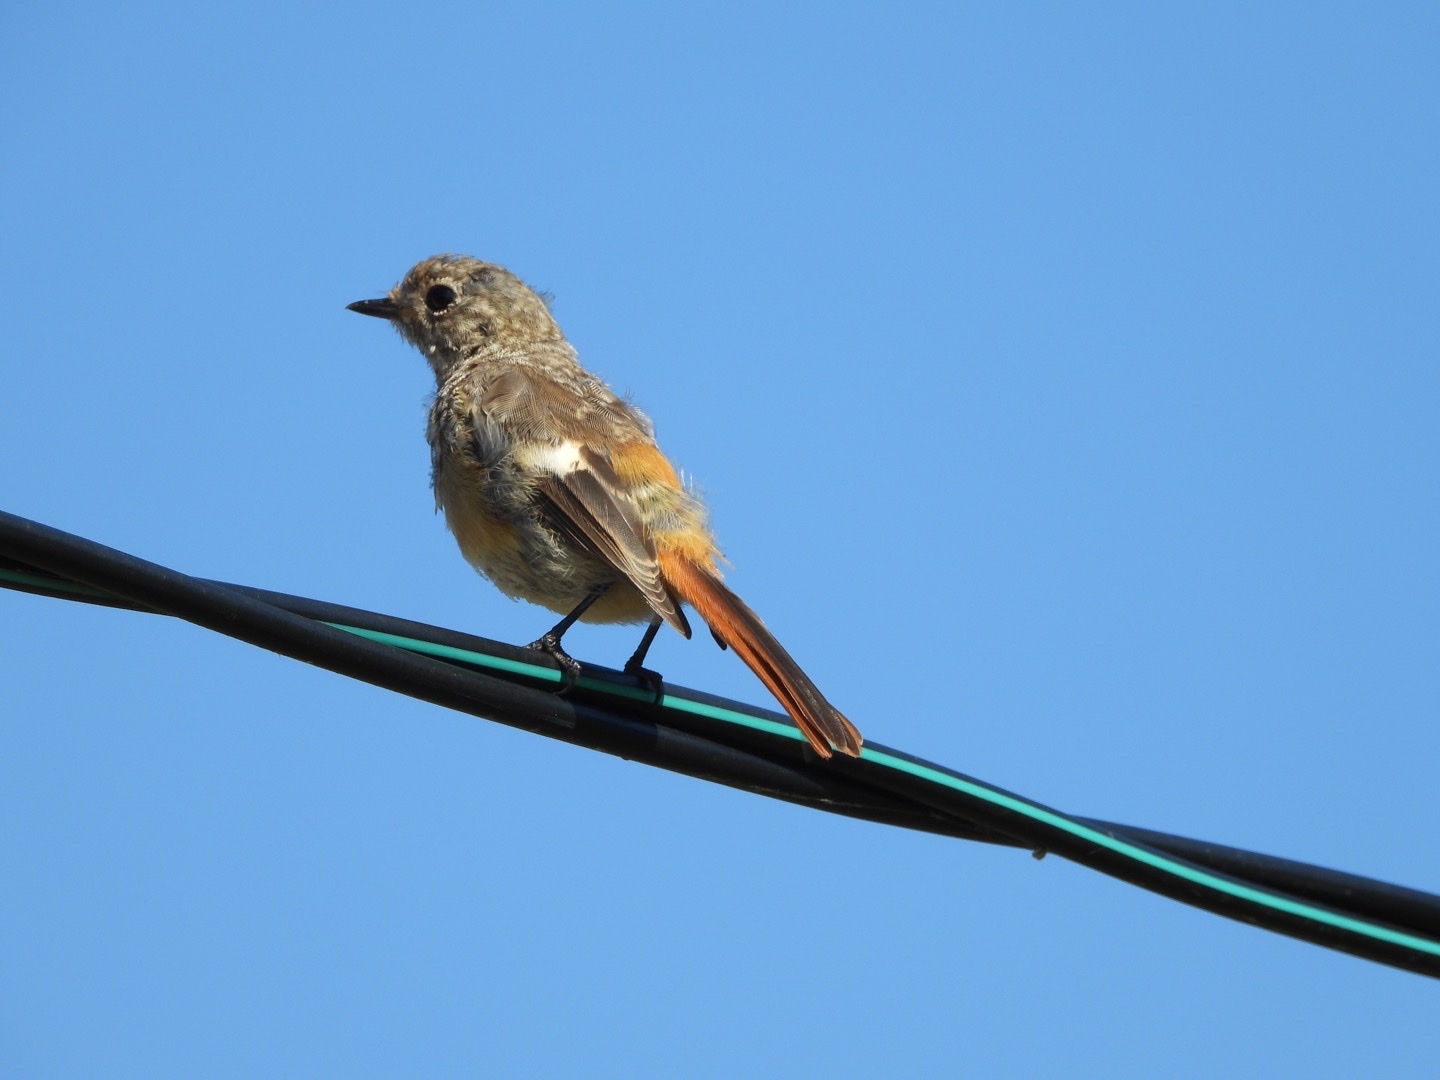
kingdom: Animalia
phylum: Chordata
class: Aves
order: Passeriformes
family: Muscicapidae
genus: Phoenicurus
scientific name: Phoenicurus auroreus
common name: Daurian redstart
